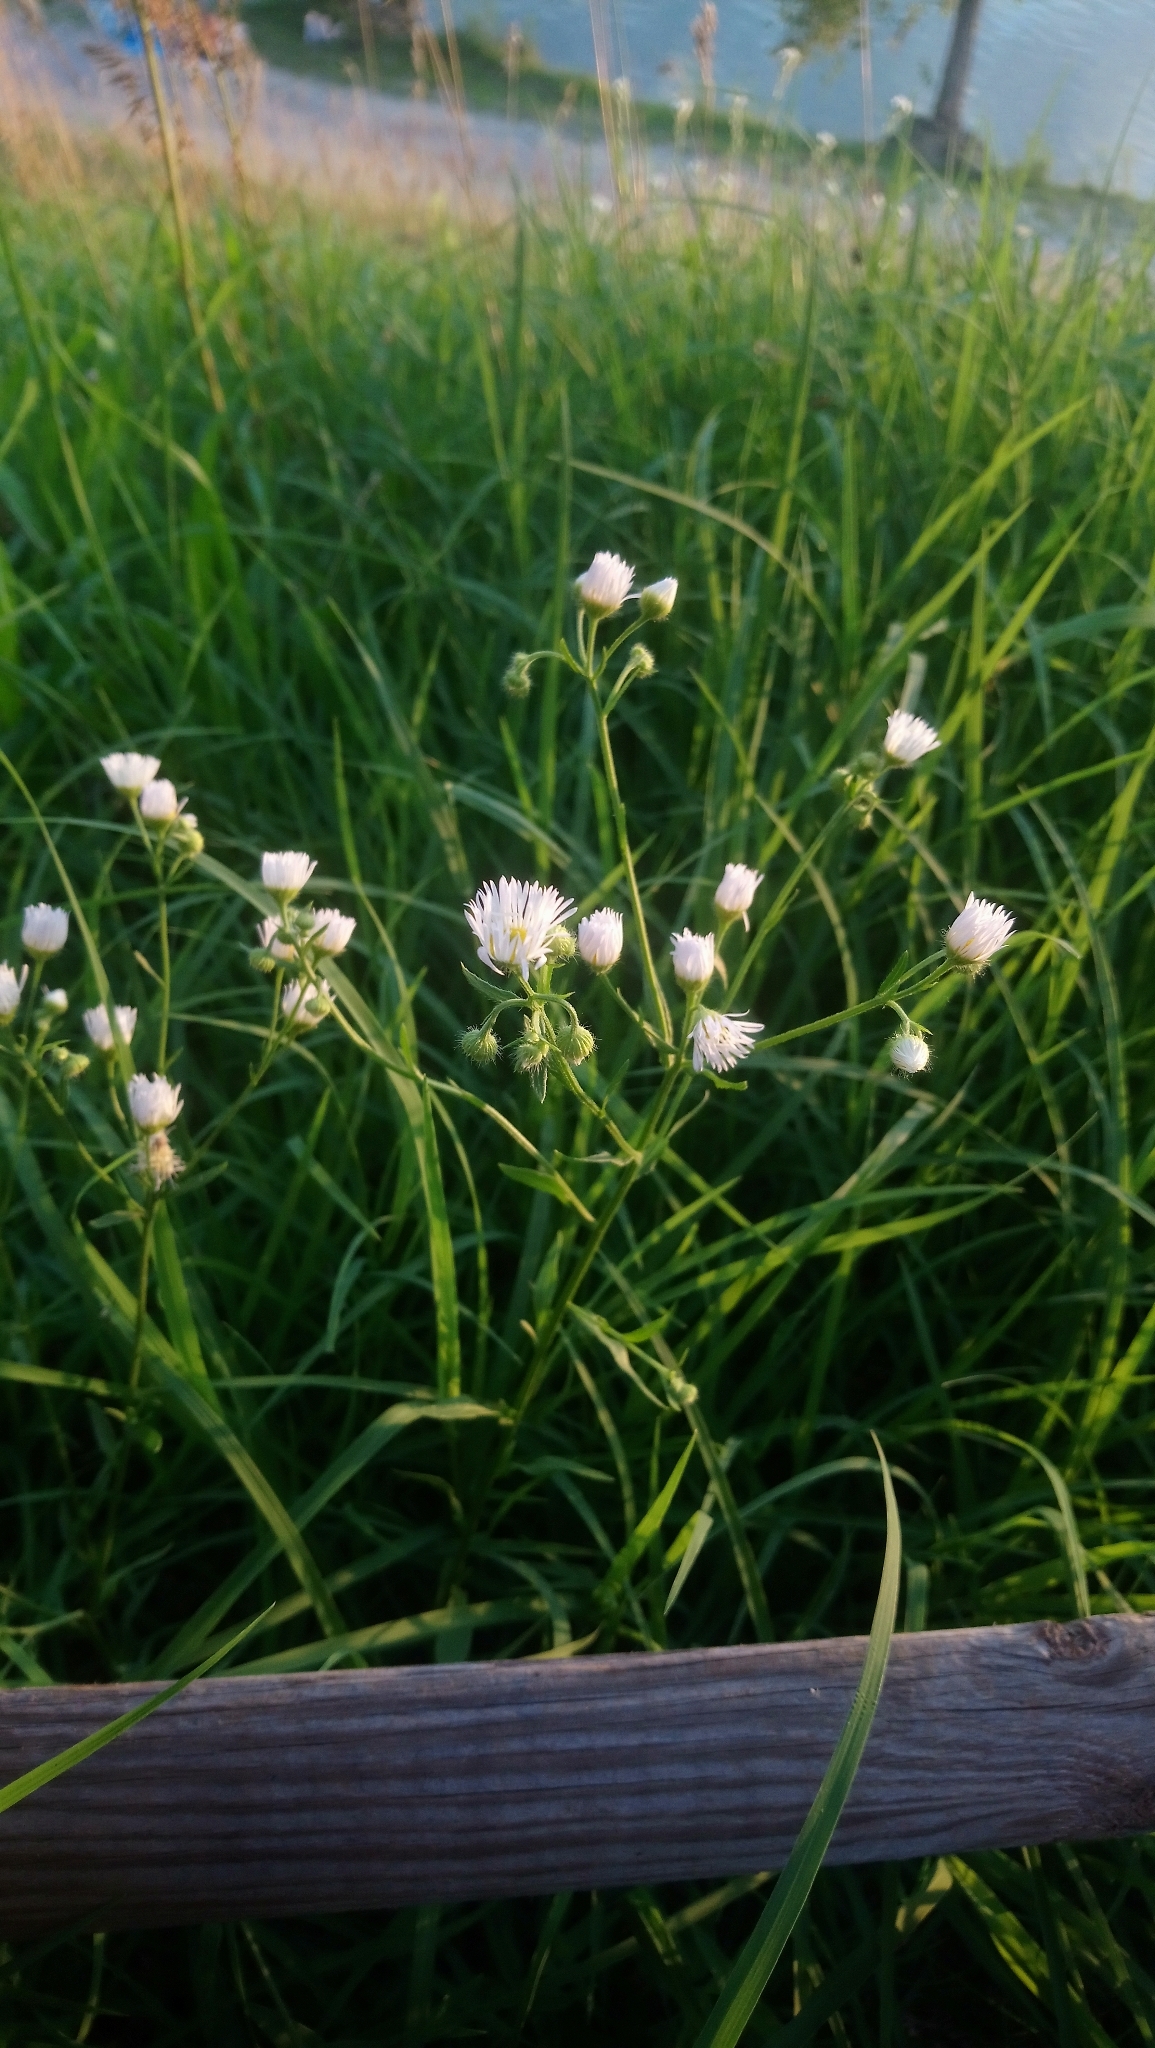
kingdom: Plantae
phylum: Tracheophyta
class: Magnoliopsida
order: Asterales
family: Asteraceae
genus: Erigeron
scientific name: Erigeron annuus
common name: Tall fleabane
